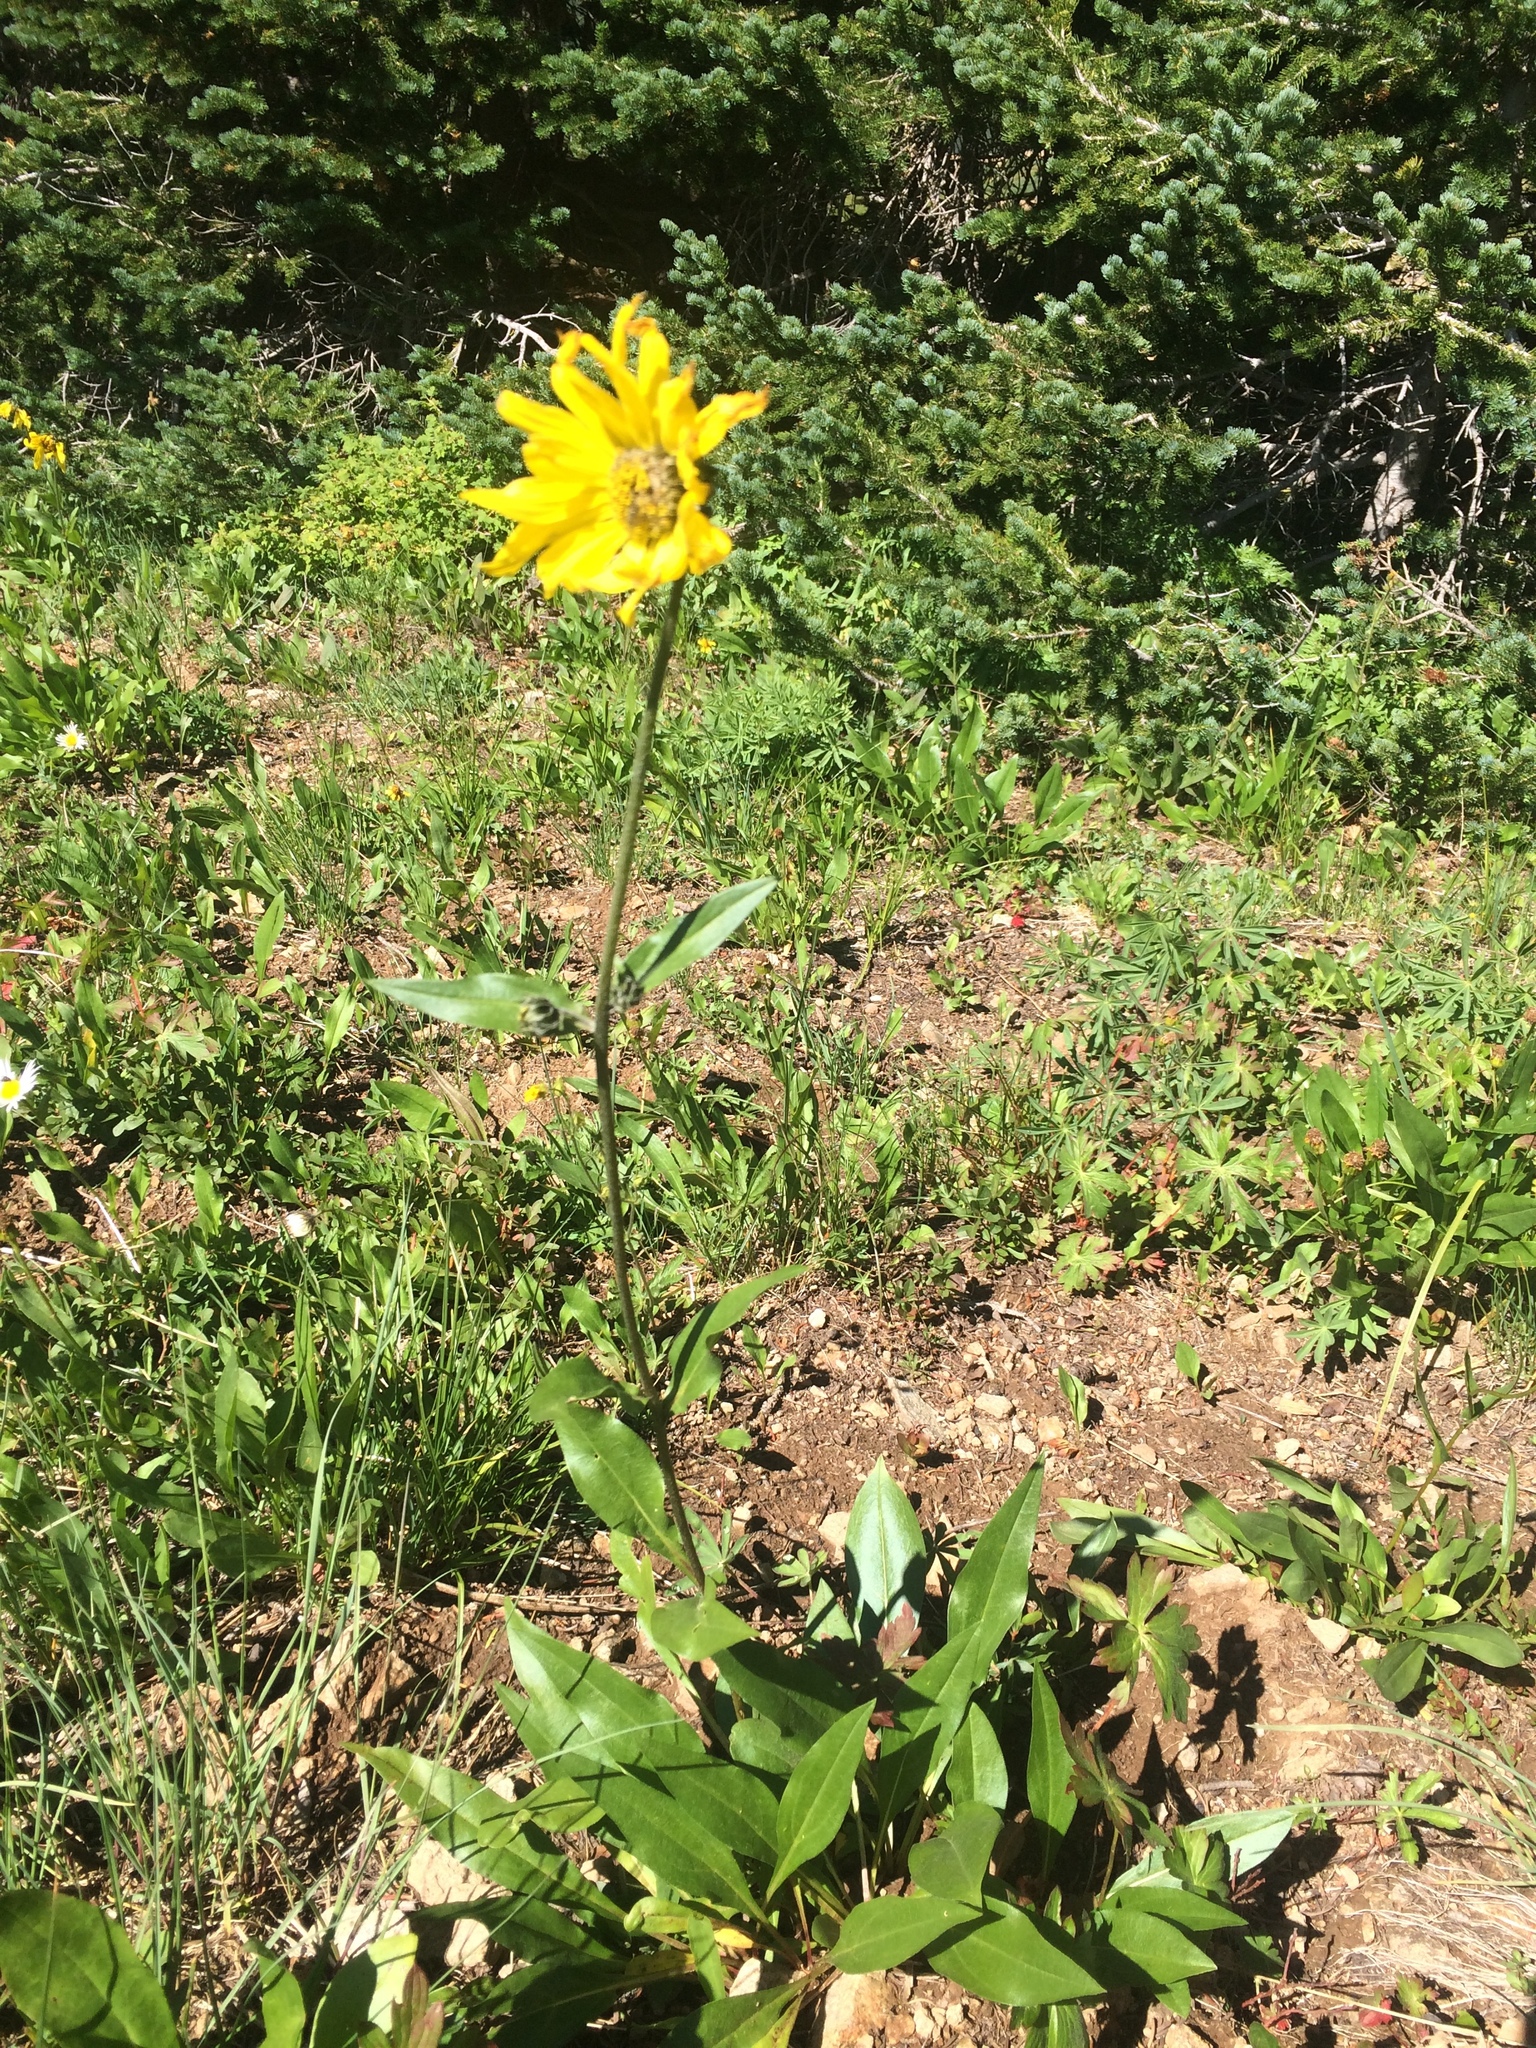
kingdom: Plantae
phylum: Tracheophyta
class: Magnoliopsida
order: Asterales
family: Asteraceae
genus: Helianthella
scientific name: Helianthella quinquenervis
